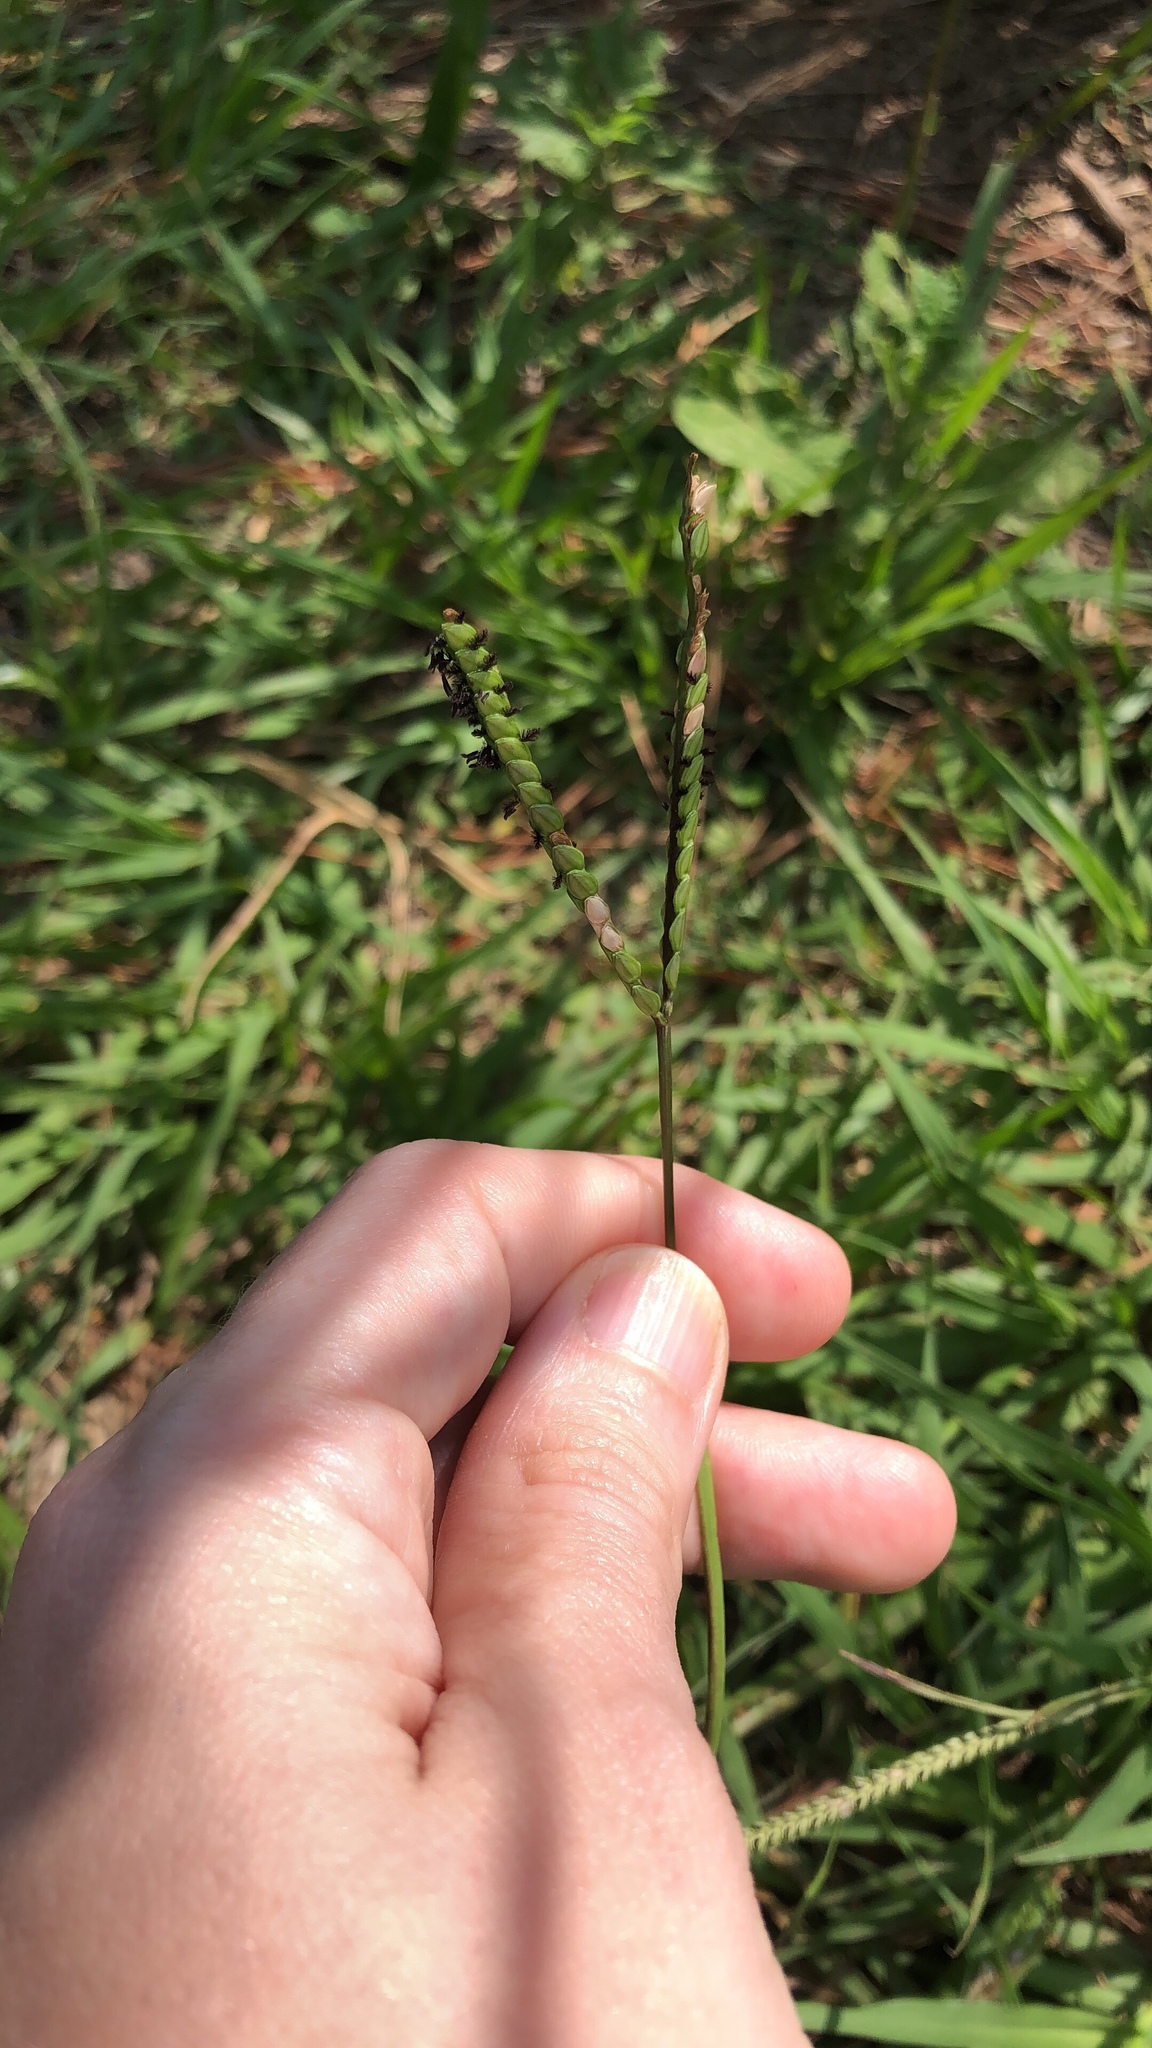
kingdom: Plantae
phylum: Tracheophyta
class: Liliopsida
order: Poales
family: Poaceae
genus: Paspalum
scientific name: Paspalum notatum
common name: Bahiagrass
